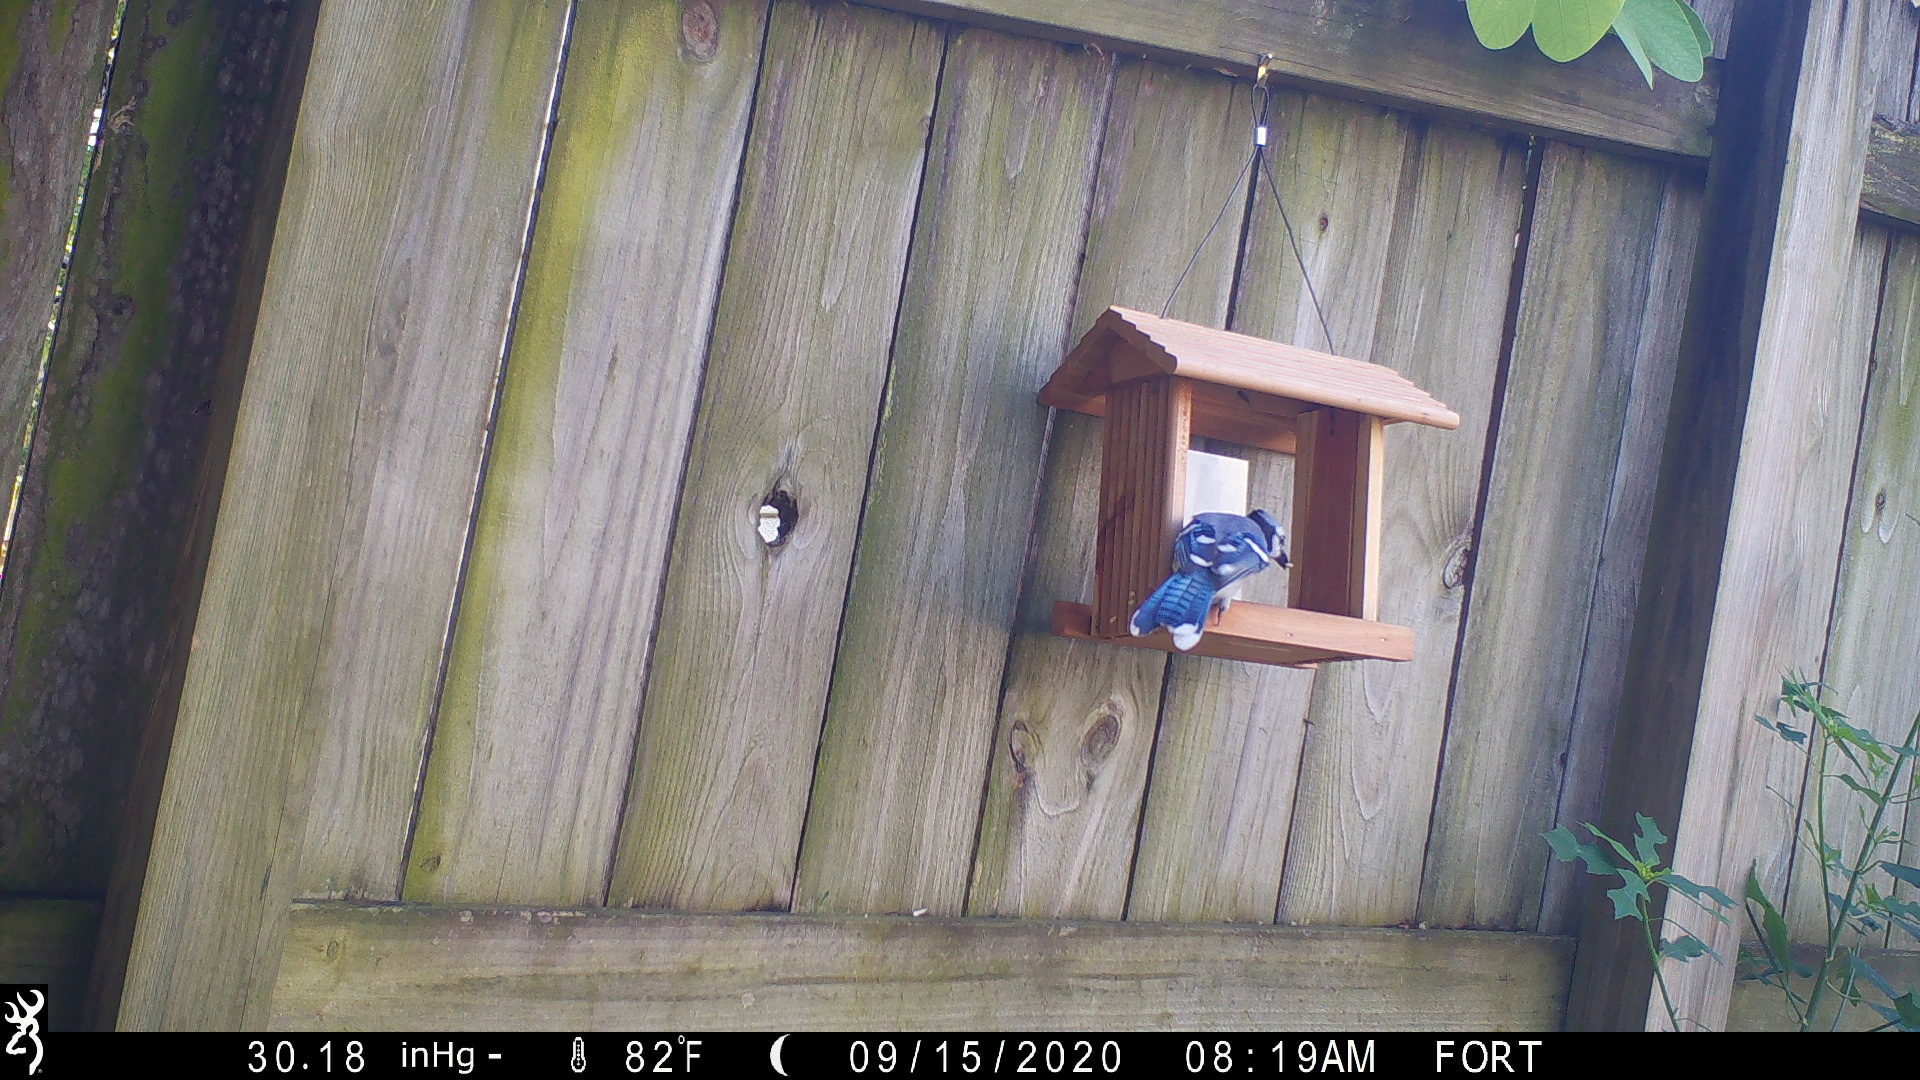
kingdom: Animalia
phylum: Chordata
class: Aves
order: Passeriformes
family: Corvidae
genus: Cyanocitta
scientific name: Cyanocitta cristata
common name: Blue jay
